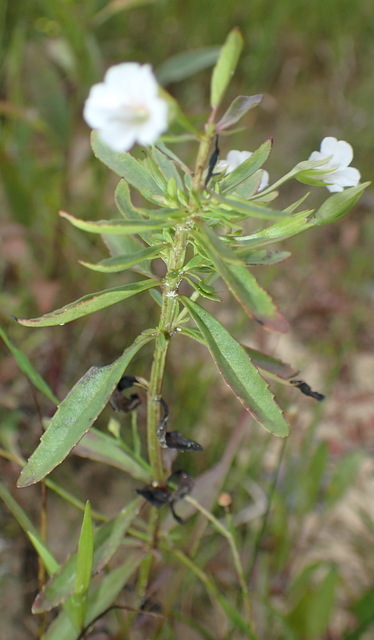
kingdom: Plantae
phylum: Tracheophyta
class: Magnoliopsida
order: Lamiales
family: Plantaginaceae
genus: Mecardonia
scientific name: Mecardonia acuminata
